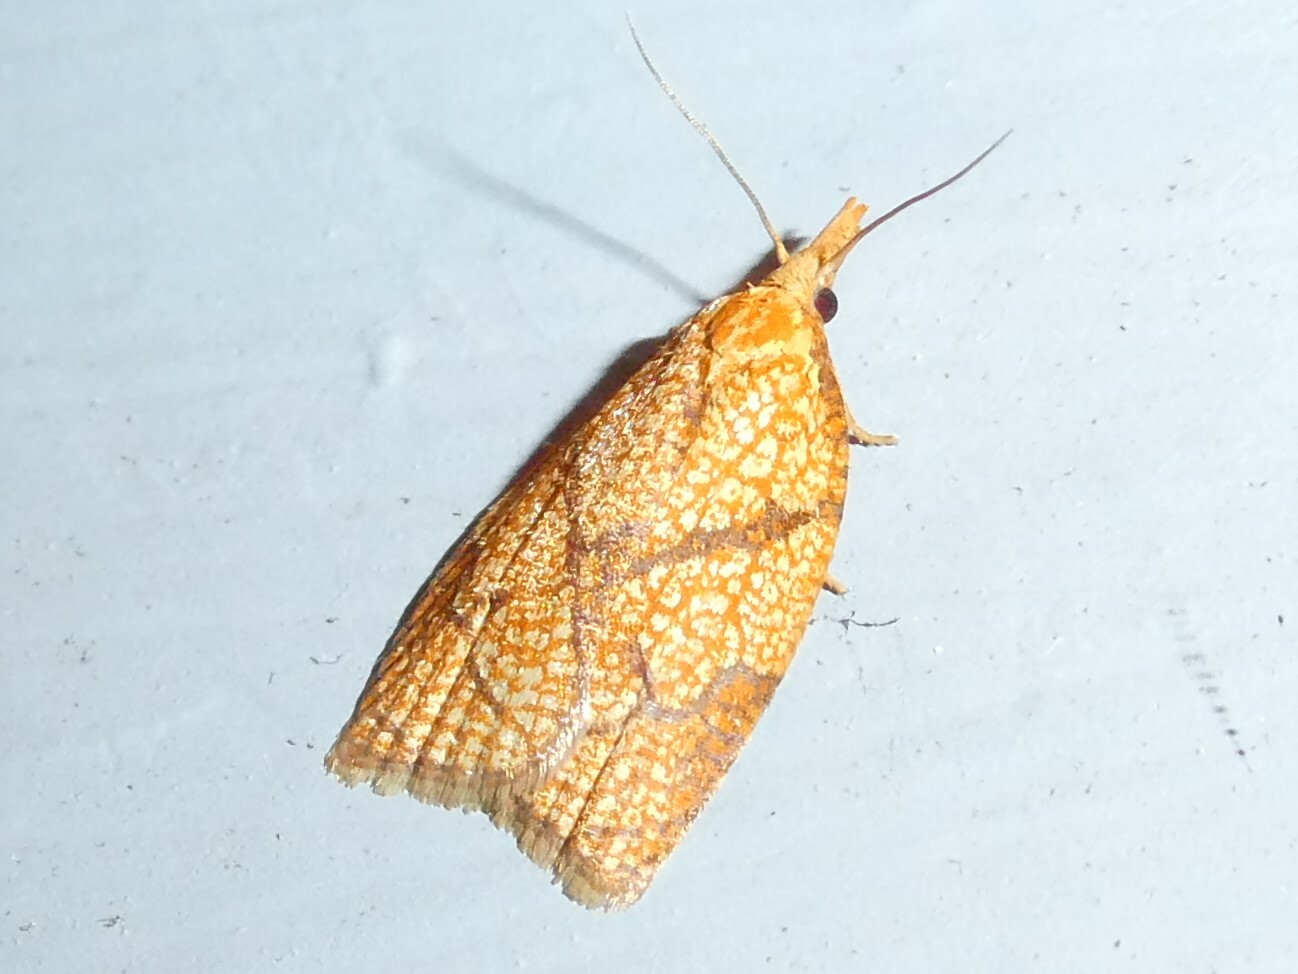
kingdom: Animalia
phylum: Arthropoda
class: Insecta
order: Lepidoptera
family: Tortricidae
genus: Cenopis
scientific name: Cenopis reticulatana
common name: Reticulated fruitworm moth
